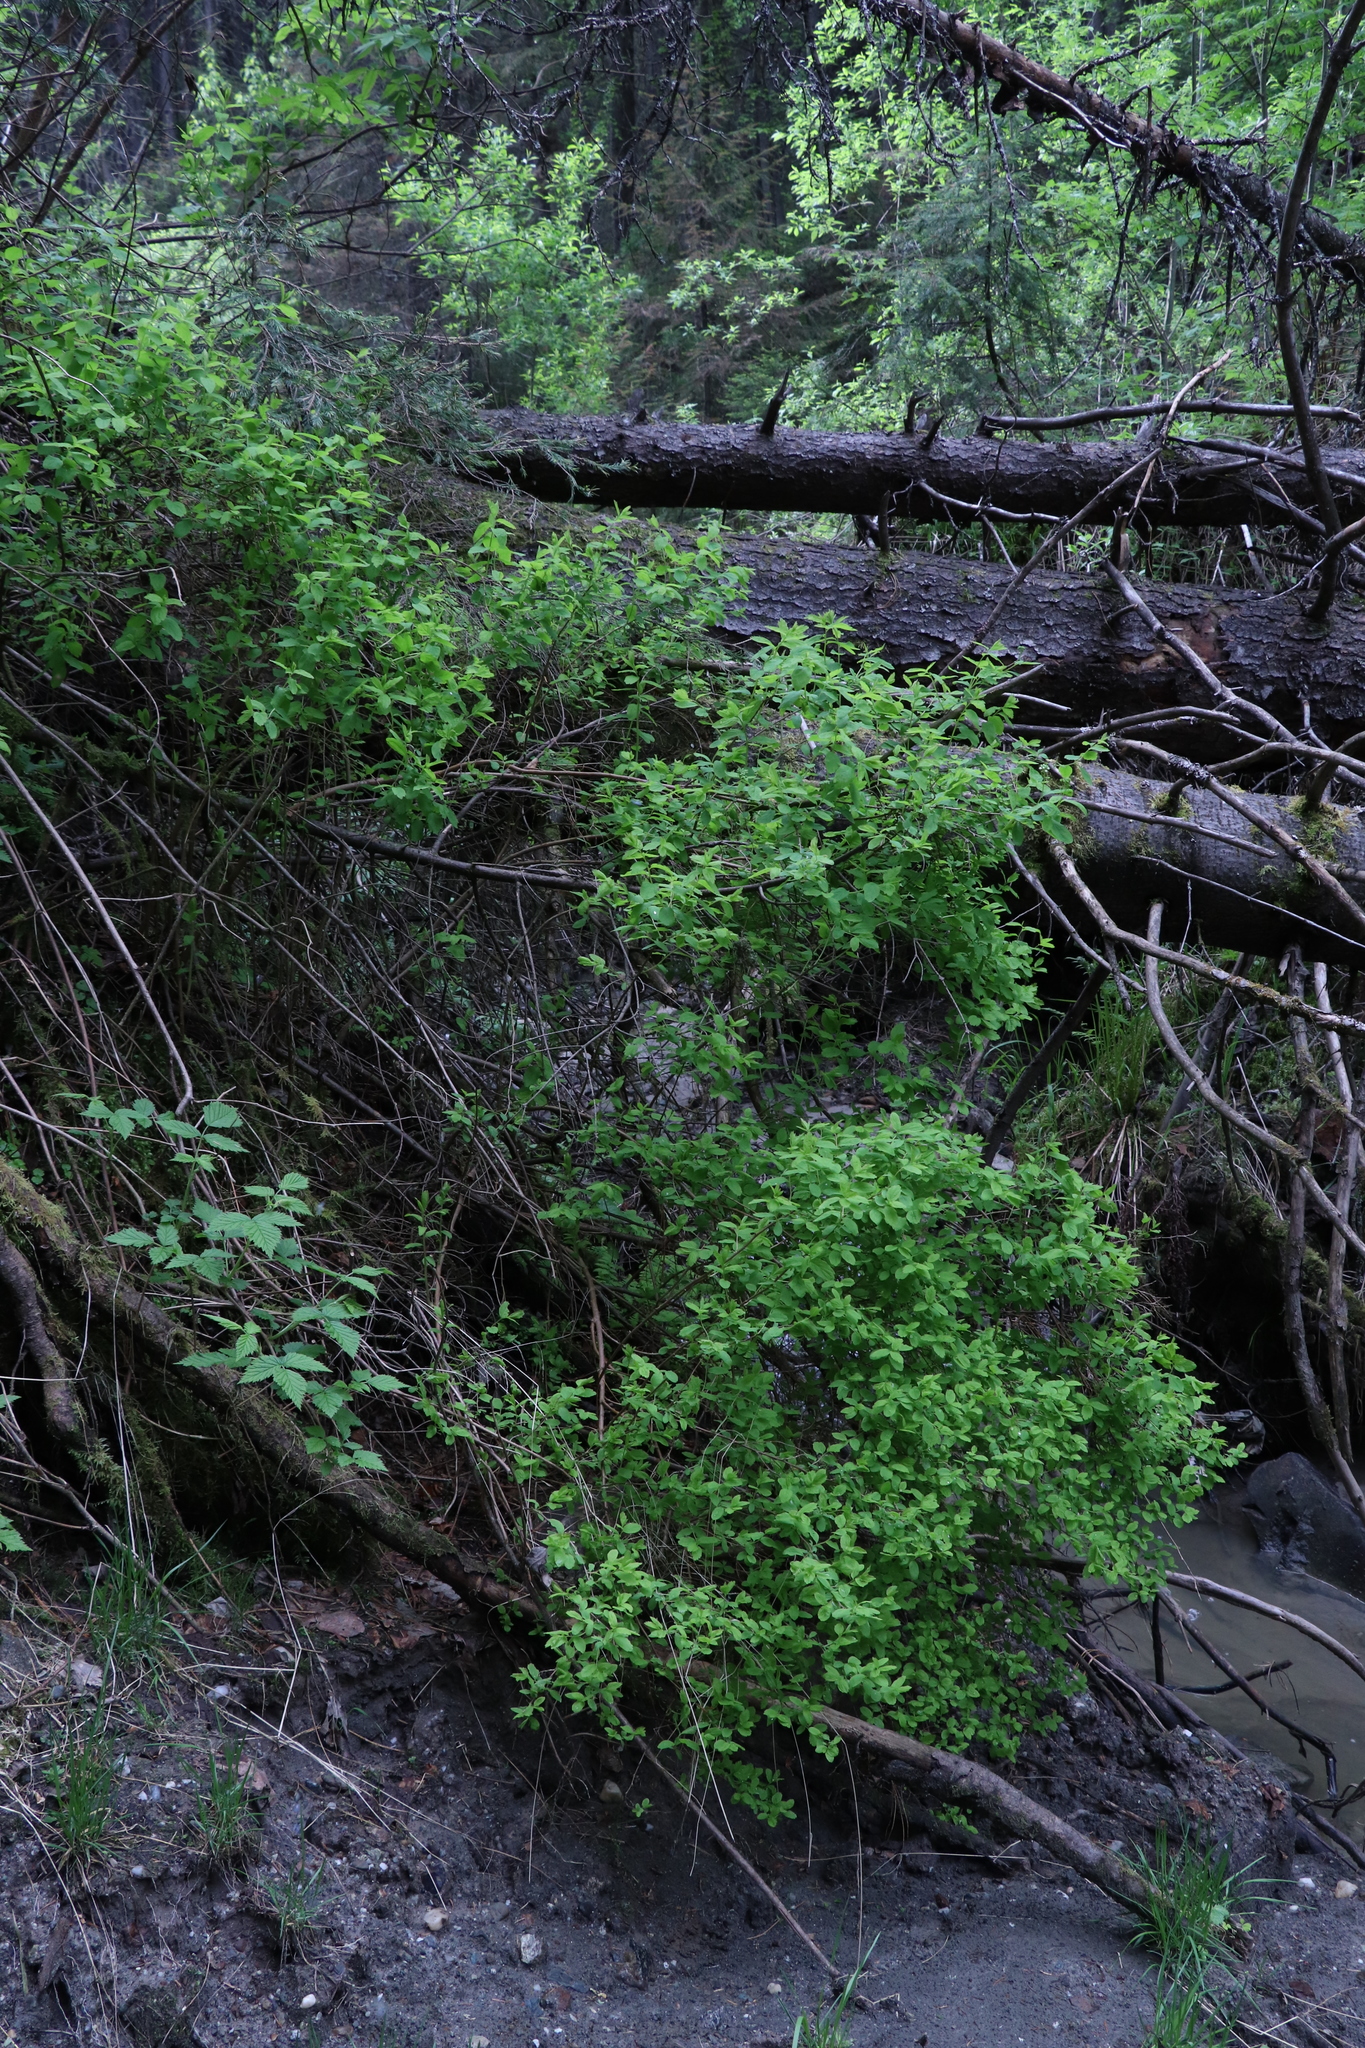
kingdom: Plantae
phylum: Tracheophyta
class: Magnoliopsida
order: Rosales
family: Rosaceae
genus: Spiraea
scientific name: Spiraea media
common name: Russian spiraea
